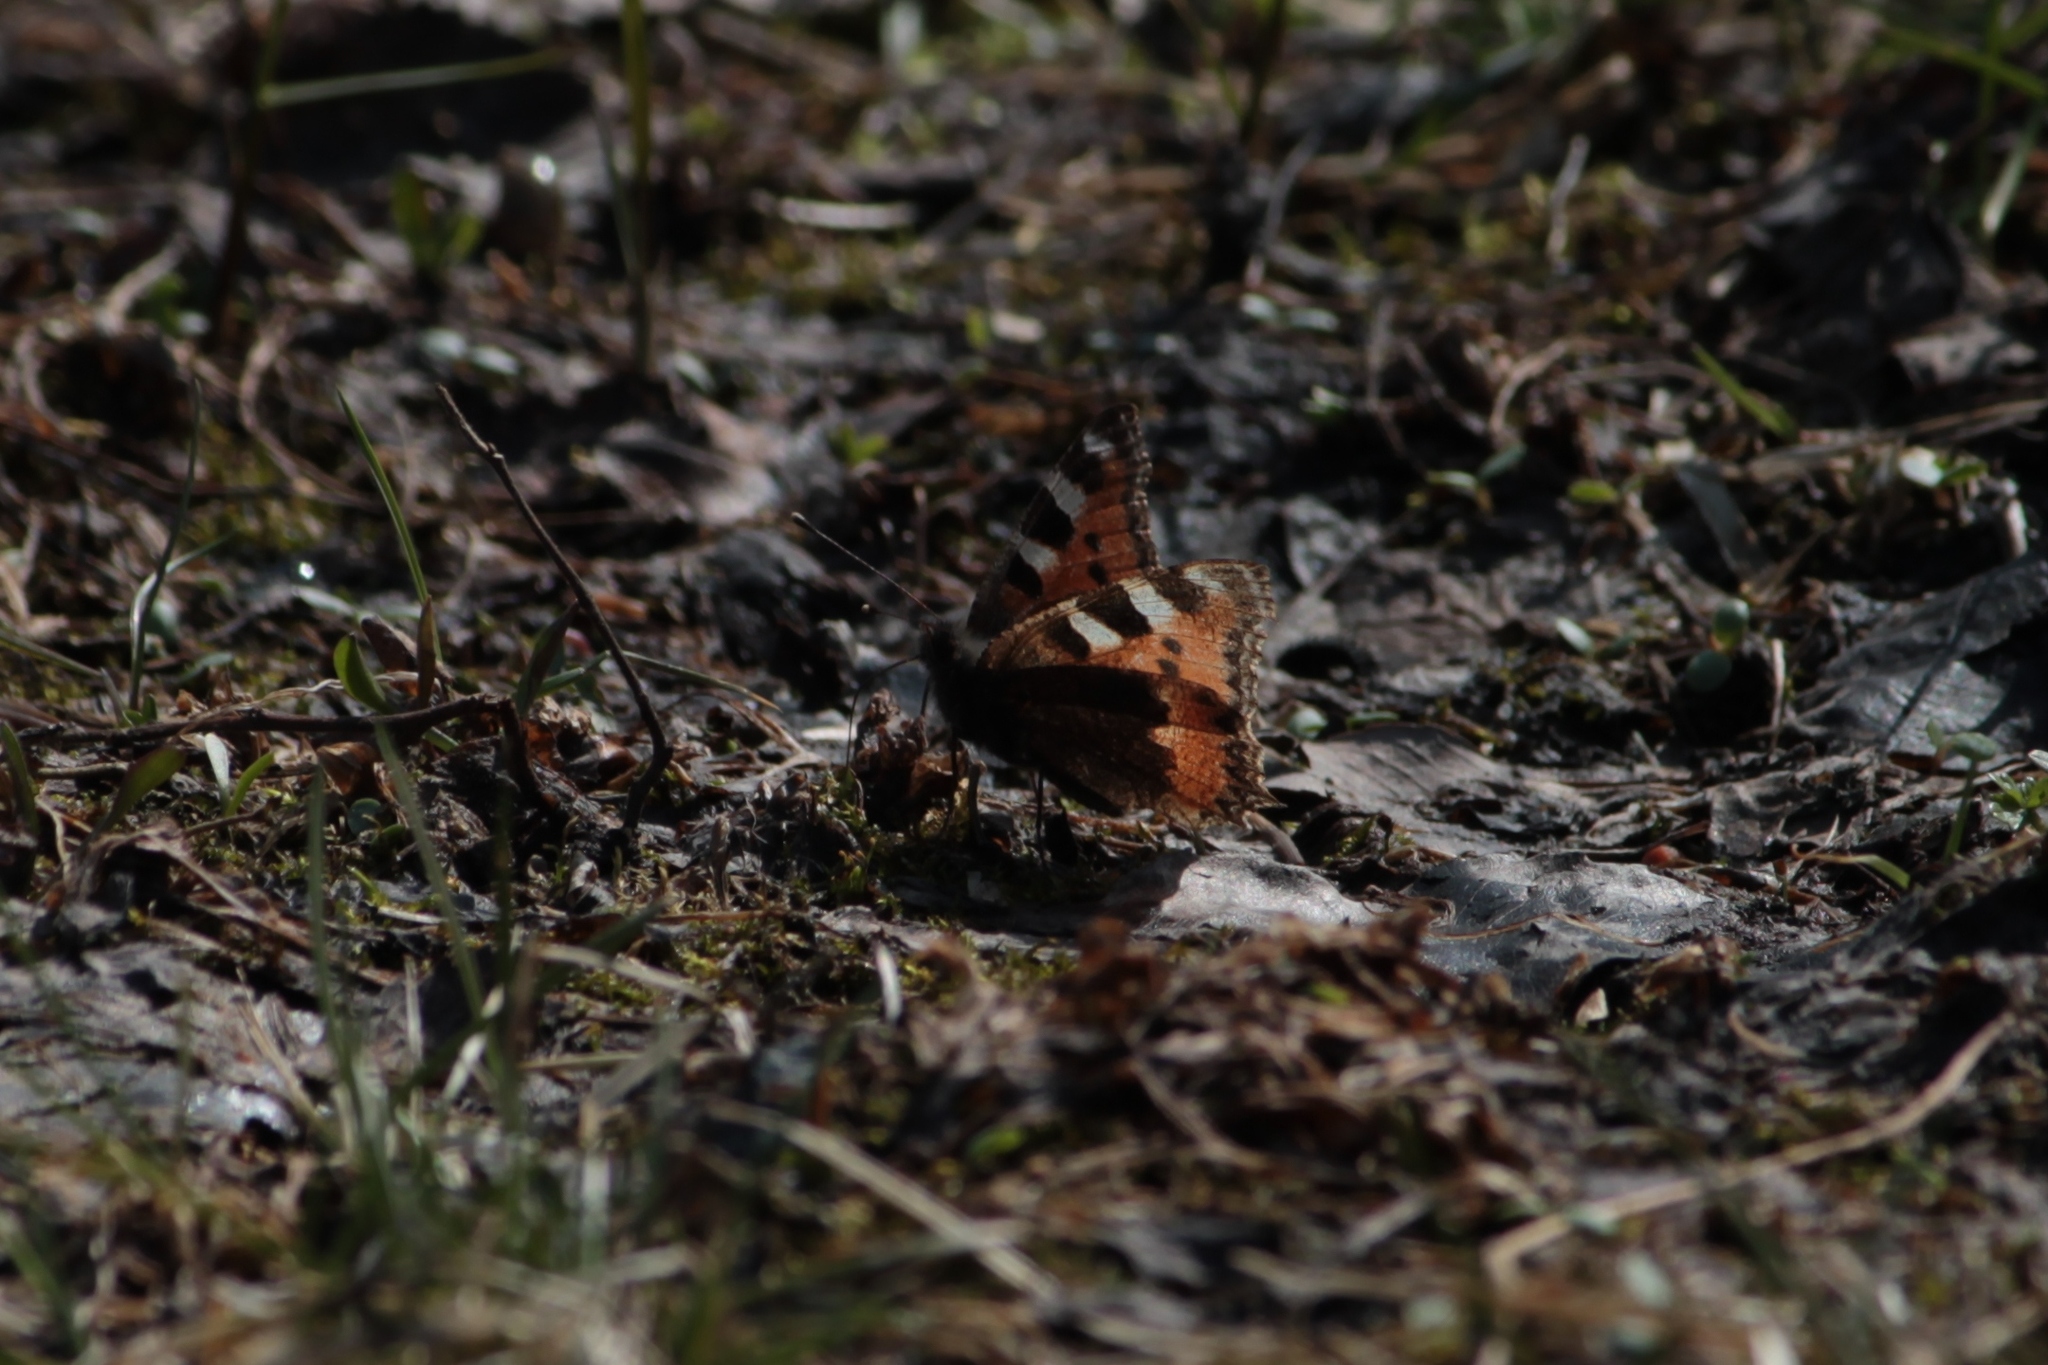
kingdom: Animalia
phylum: Arthropoda
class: Insecta
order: Lepidoptera
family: Nymphalidae
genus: Aglais
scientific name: Aglais urticae
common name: Small tortoiseshell
